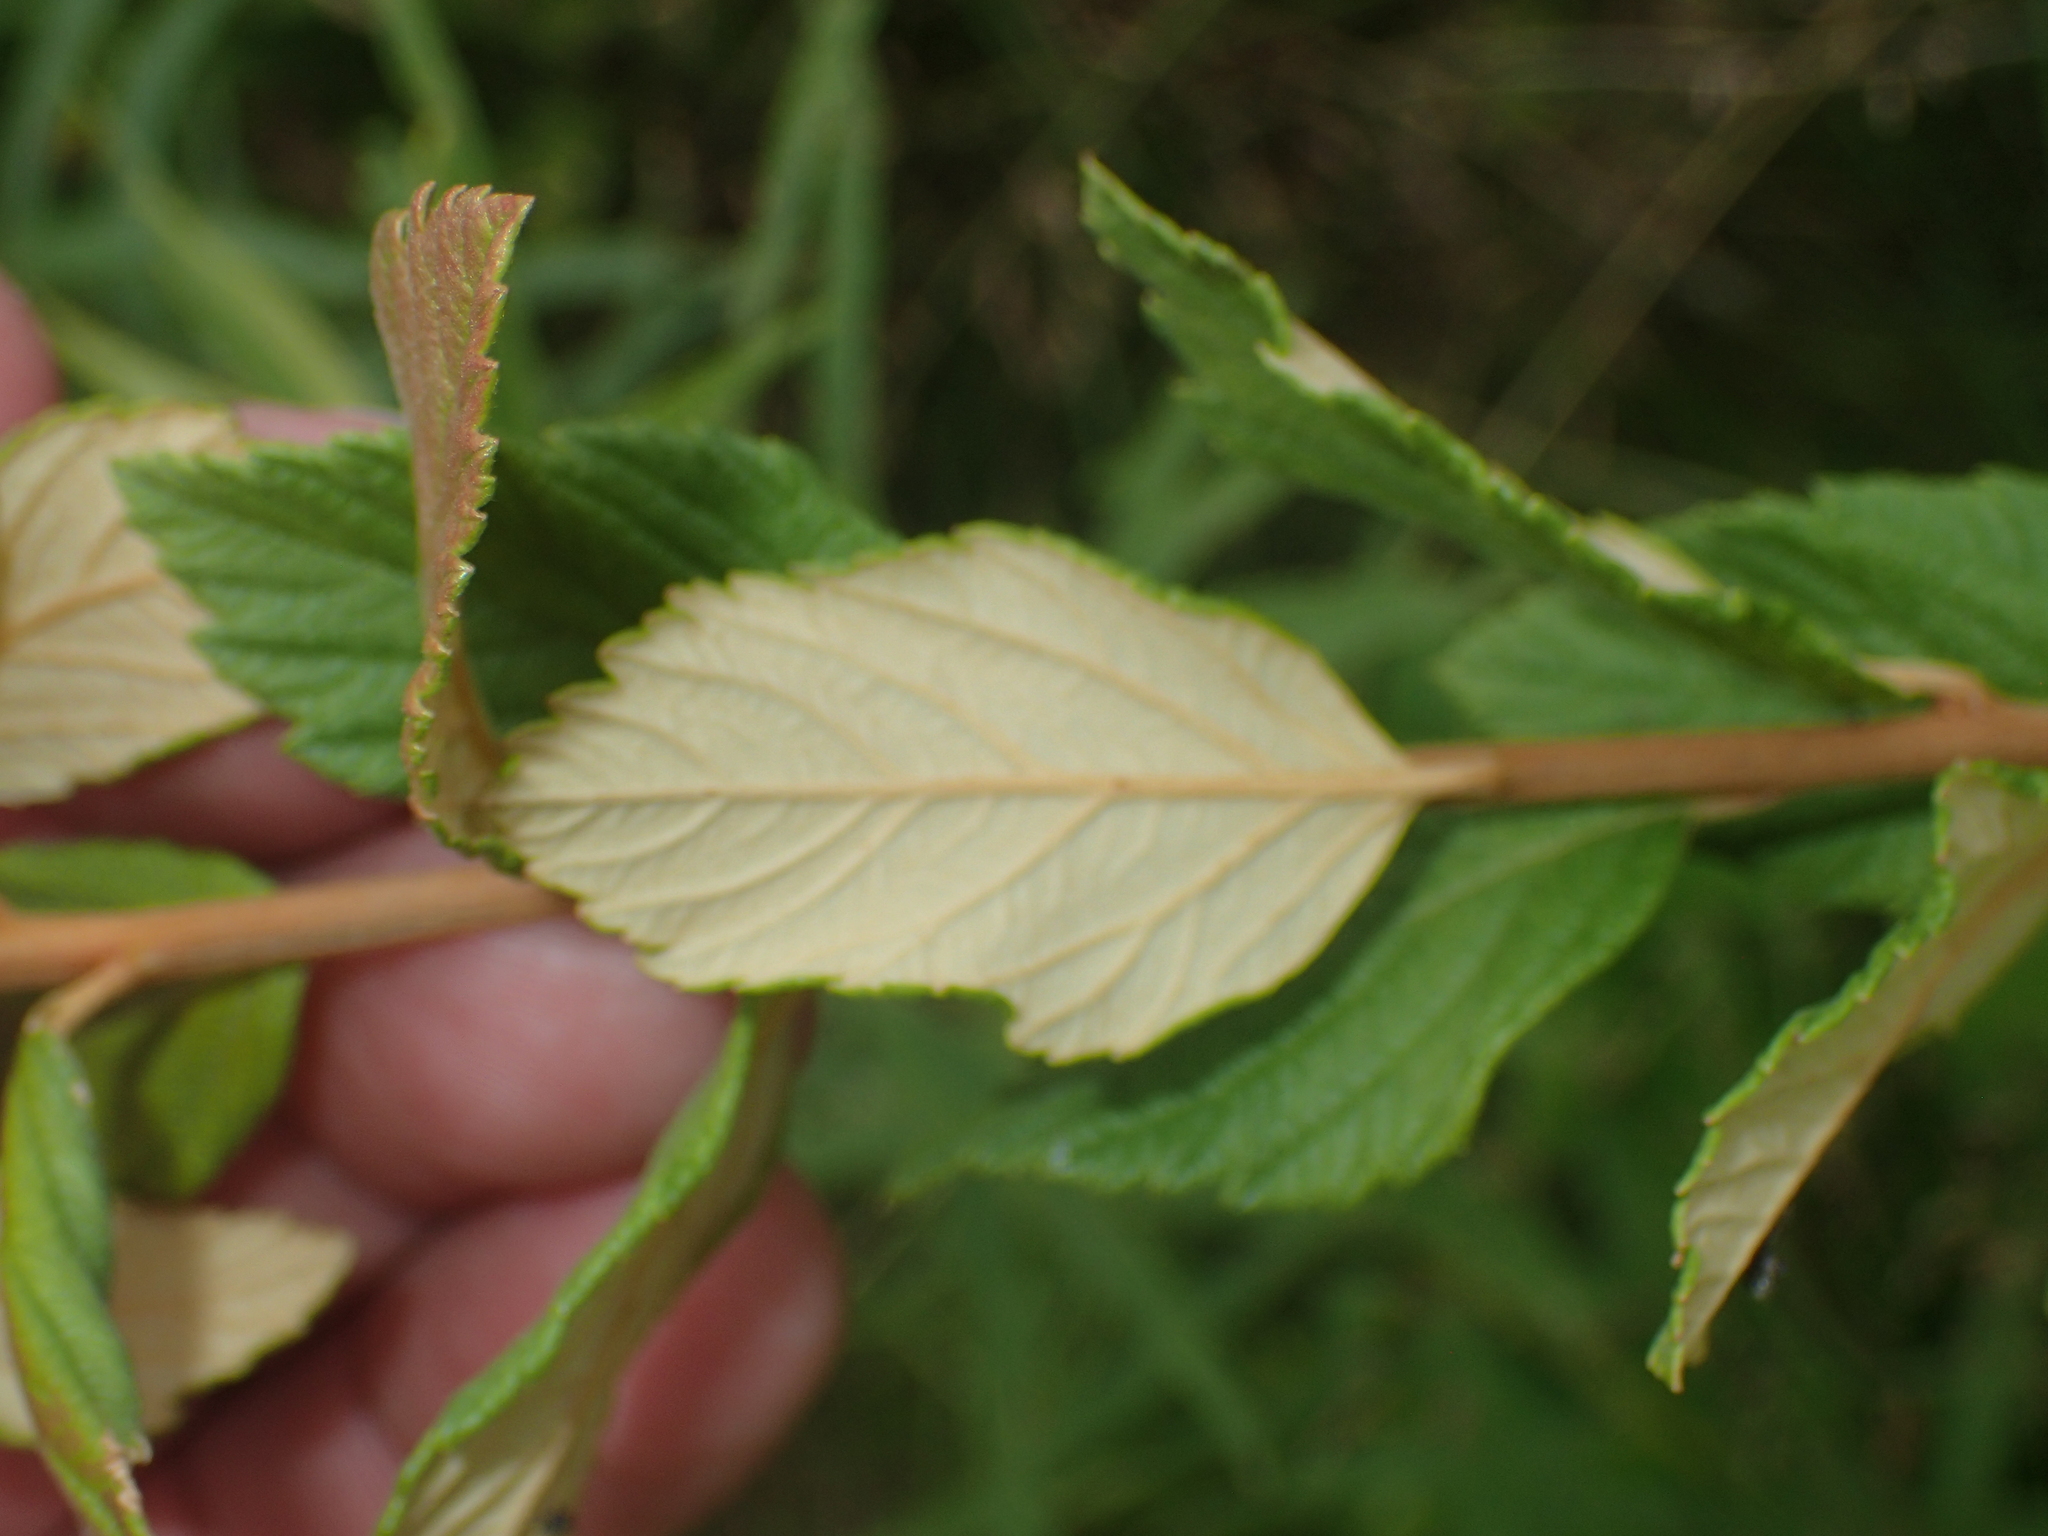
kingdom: Plantae
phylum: Tracheophyta
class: Magnoliopsida
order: Rosales
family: Rosaceae
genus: Spiraea
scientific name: Spiraea tomentosa
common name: Hardhack
